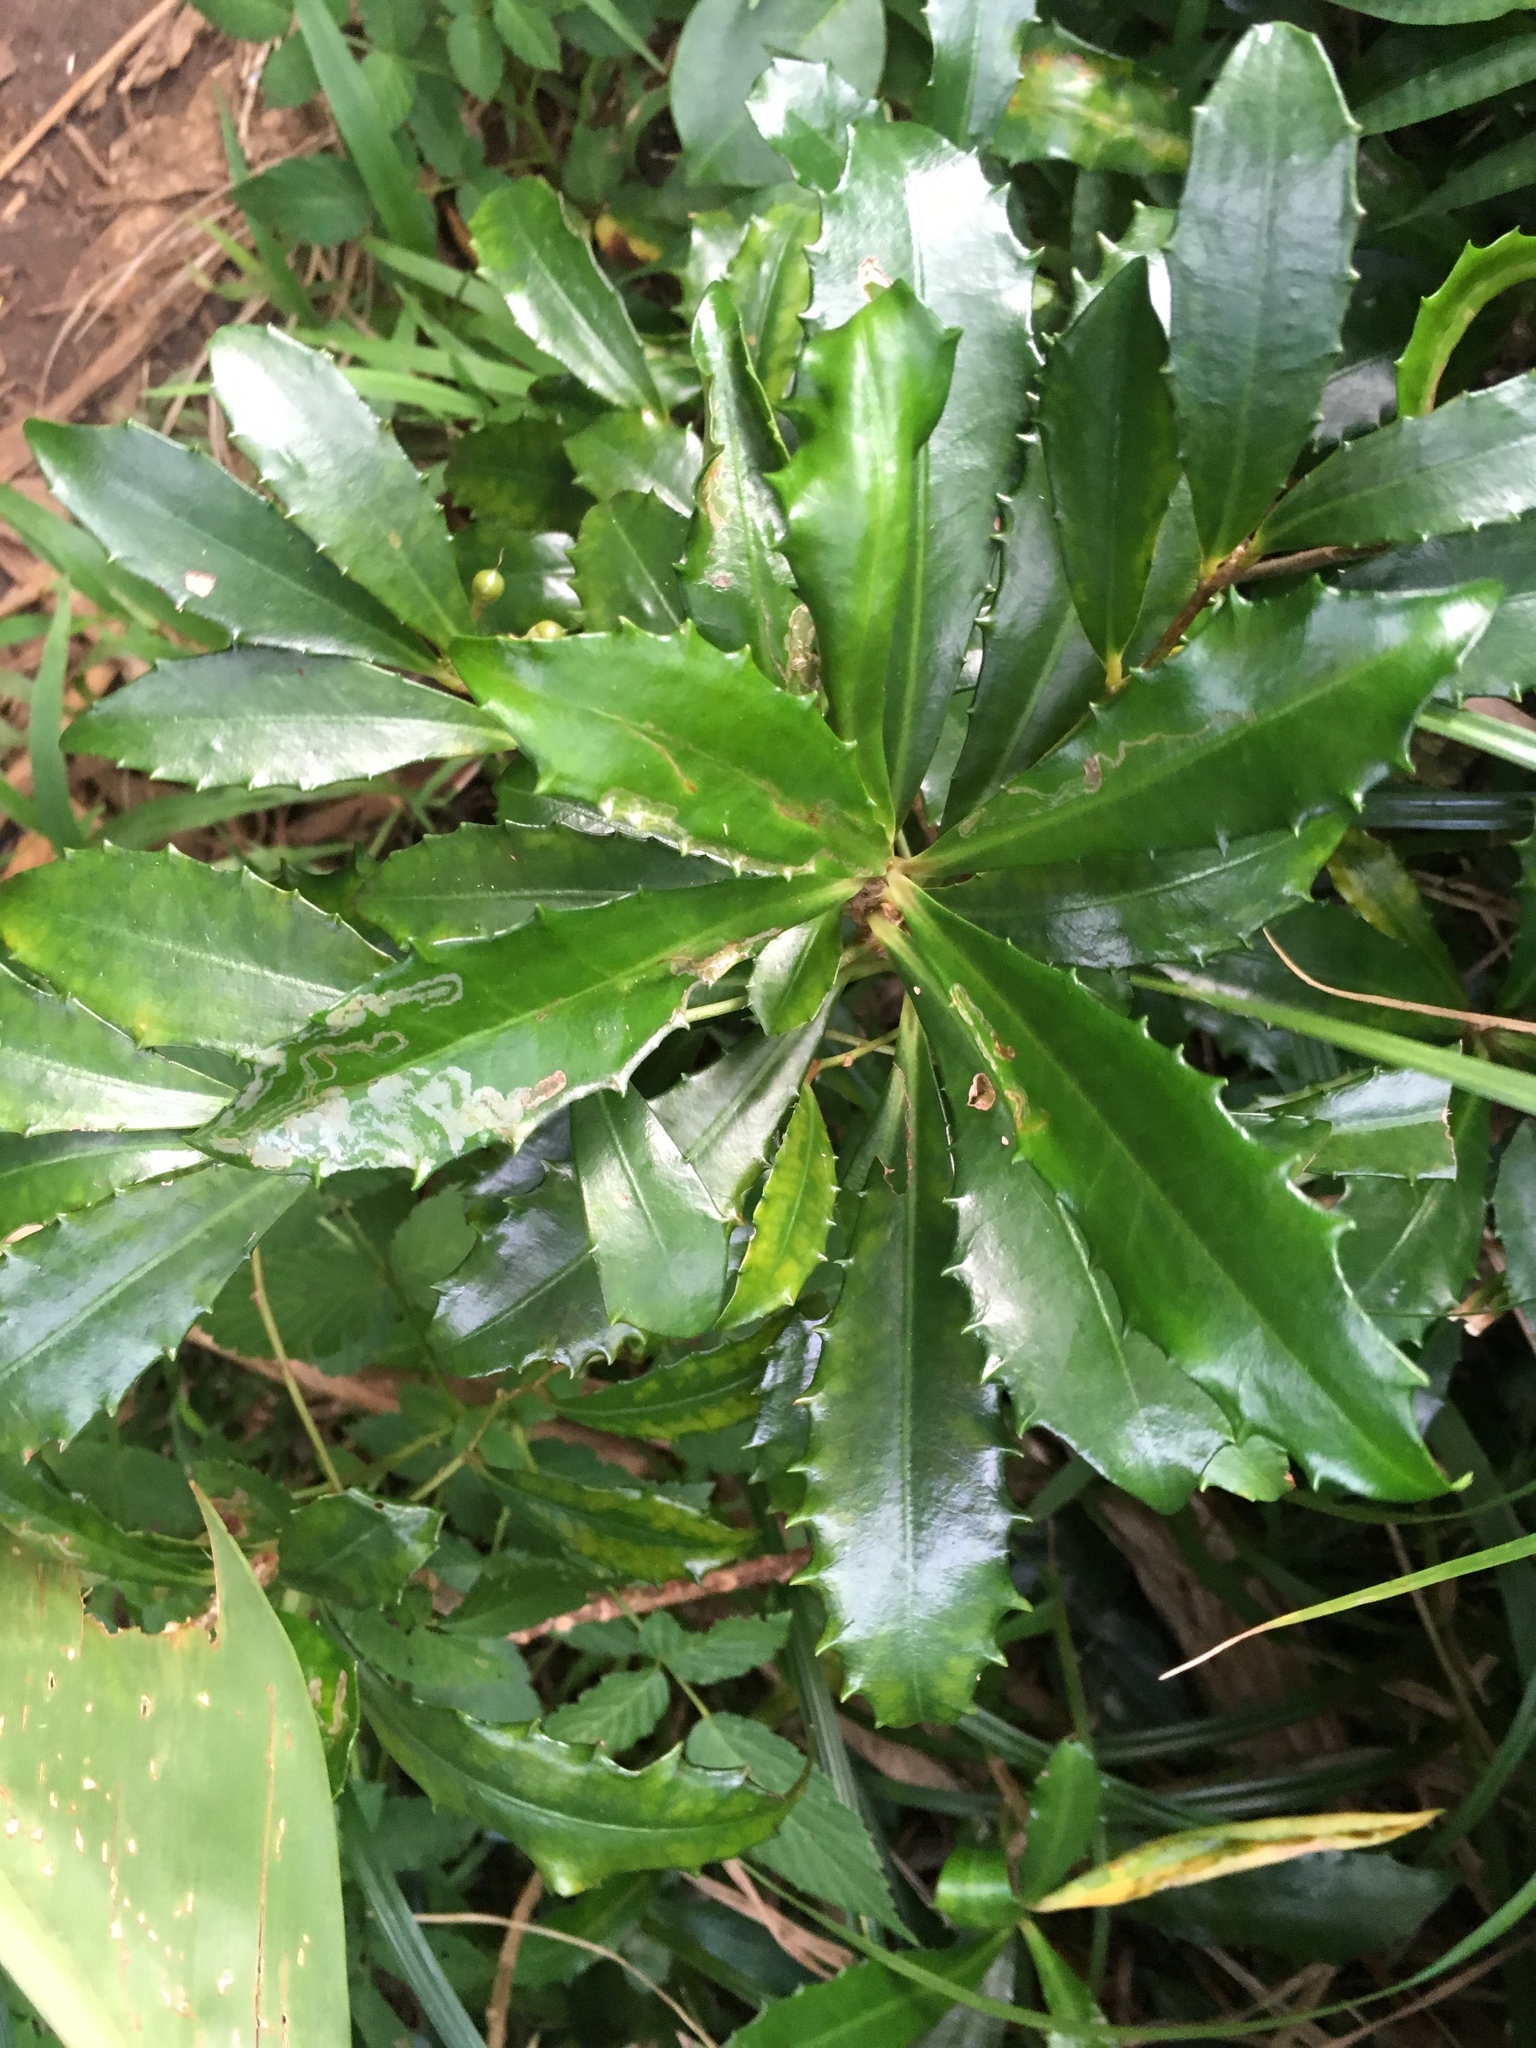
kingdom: Plantae
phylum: Tracheophyta
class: Magnoliopsida
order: Ericales
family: Primulaceae
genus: Ardisia
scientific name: Ardisia cornudentata
